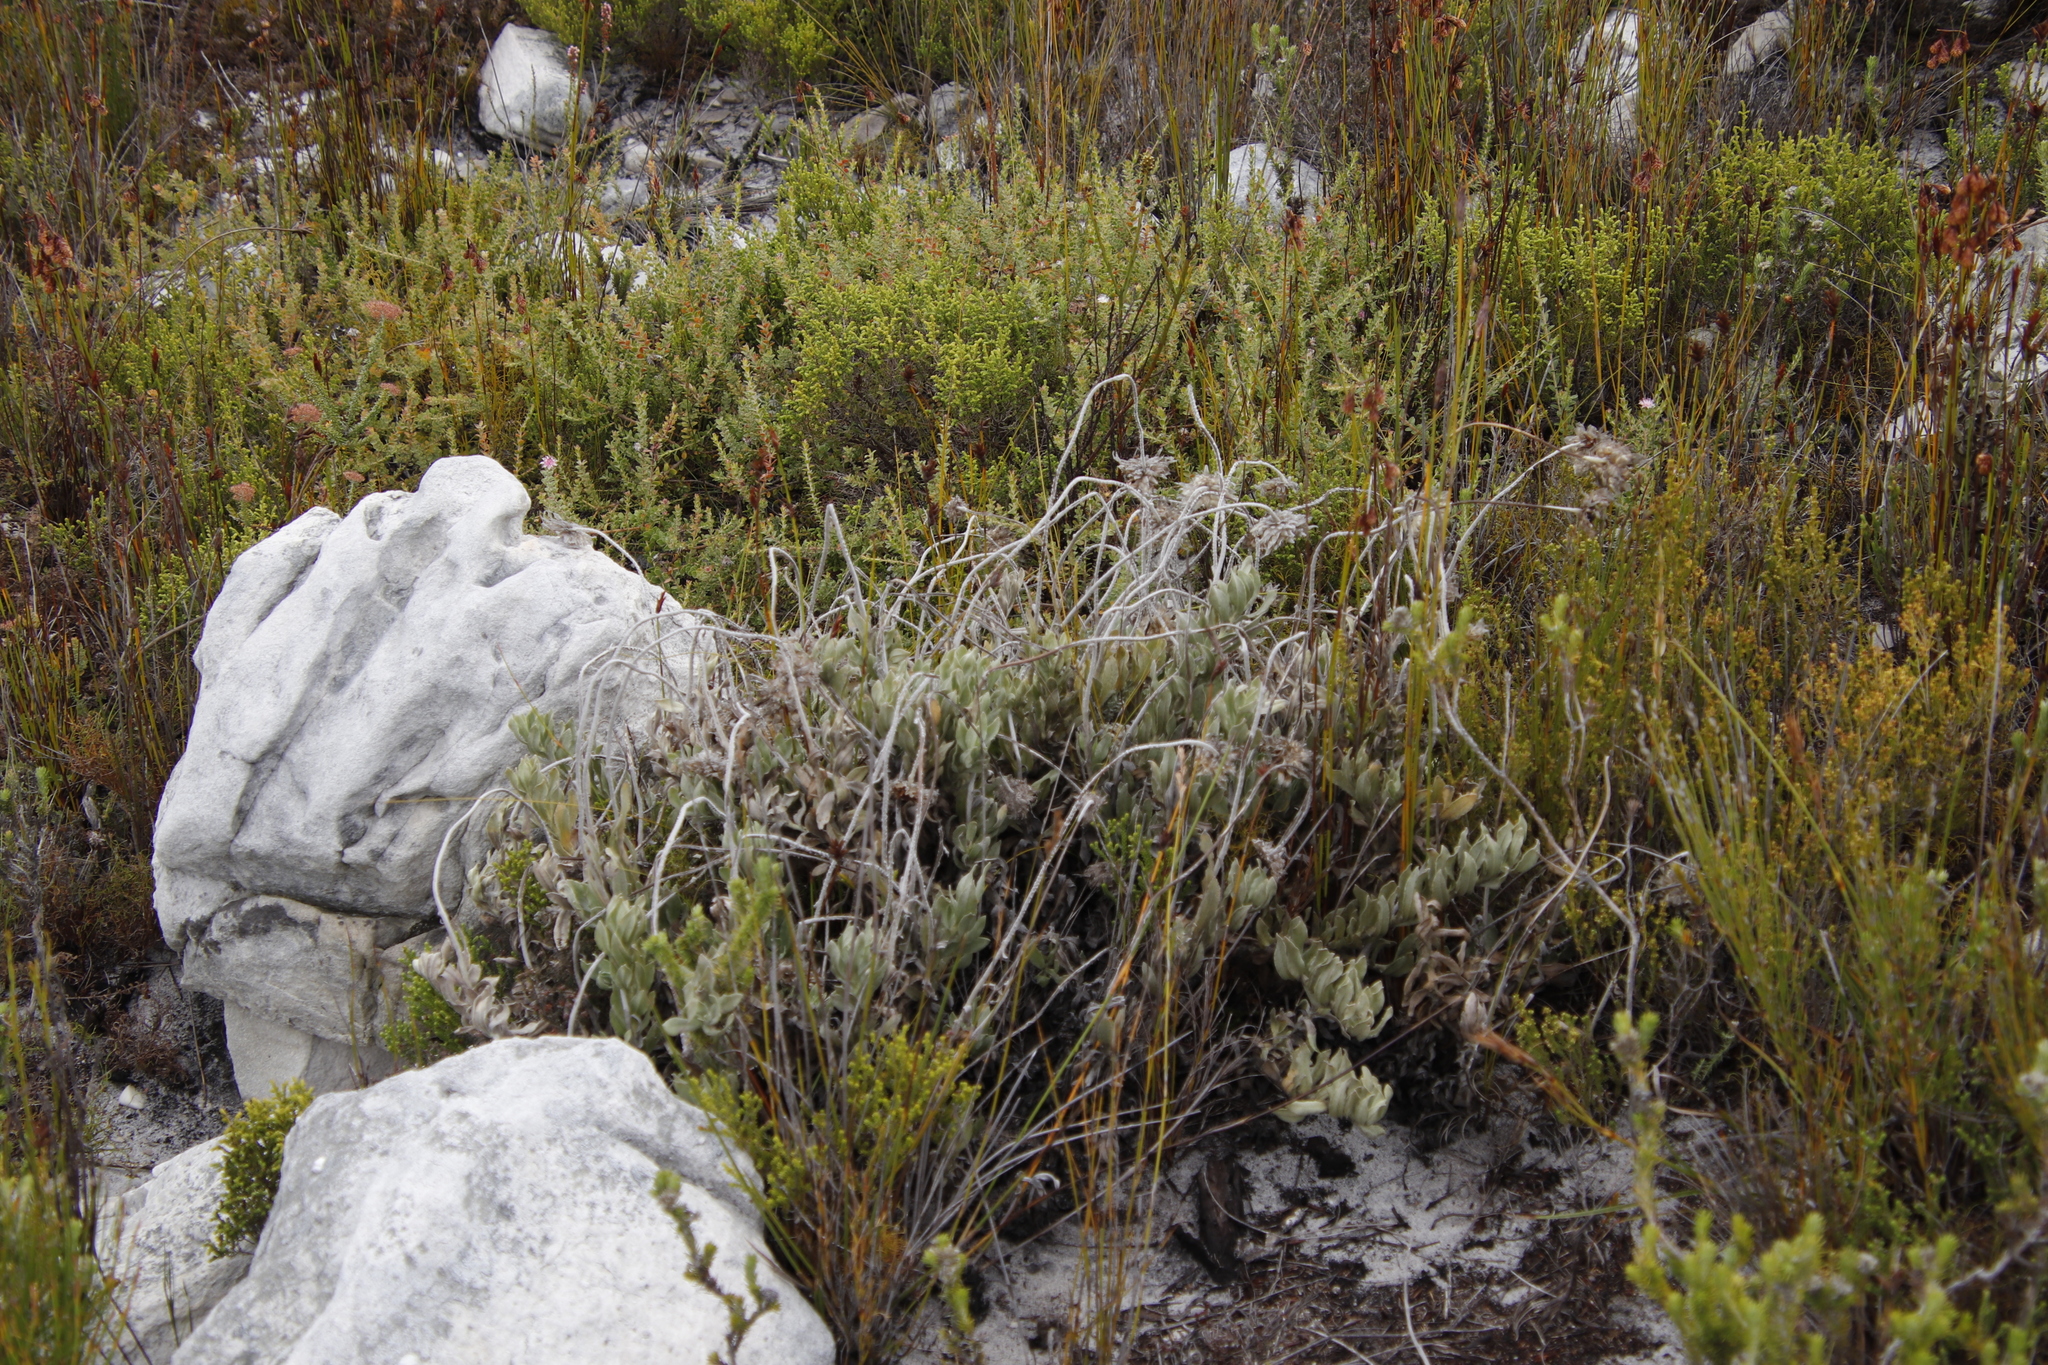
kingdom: Plantae
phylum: Tracheophyta
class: Magnoliopsida
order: Asterales
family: Asteraceae
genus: Syncarpha
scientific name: Syncarpha speciosissima
